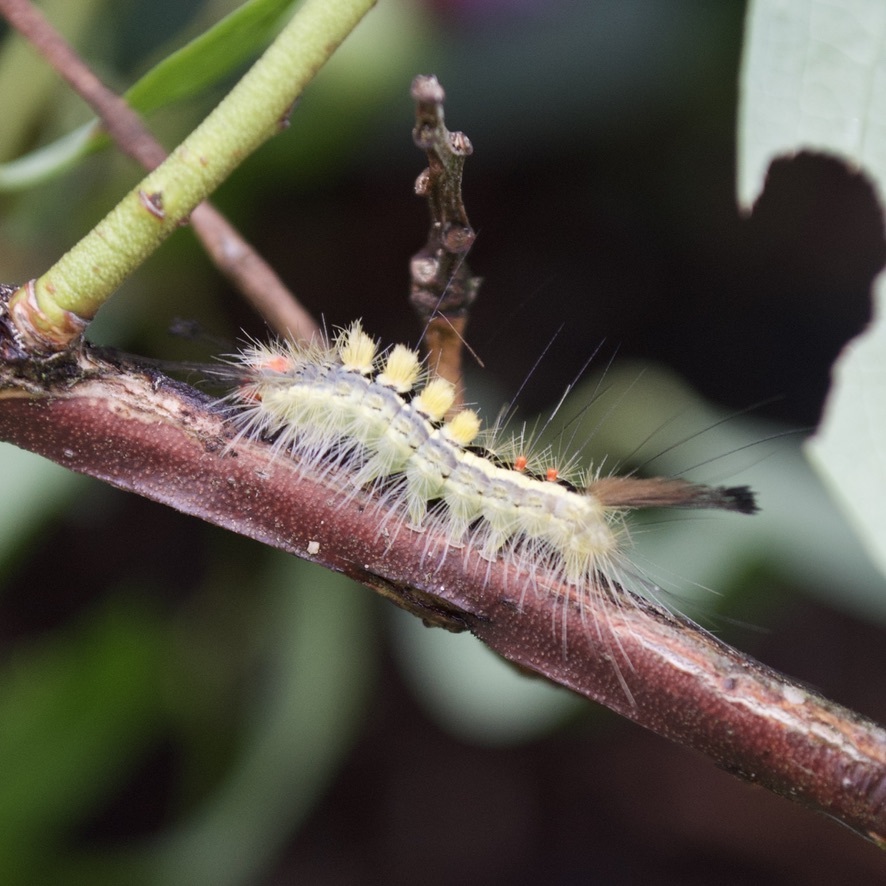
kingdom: Animalia
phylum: Arthropoda
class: Insecta
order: Lepidoptera
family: Erebidae
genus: Orgyia
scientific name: Orgyia leucostigma
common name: White-marked tussock moth
